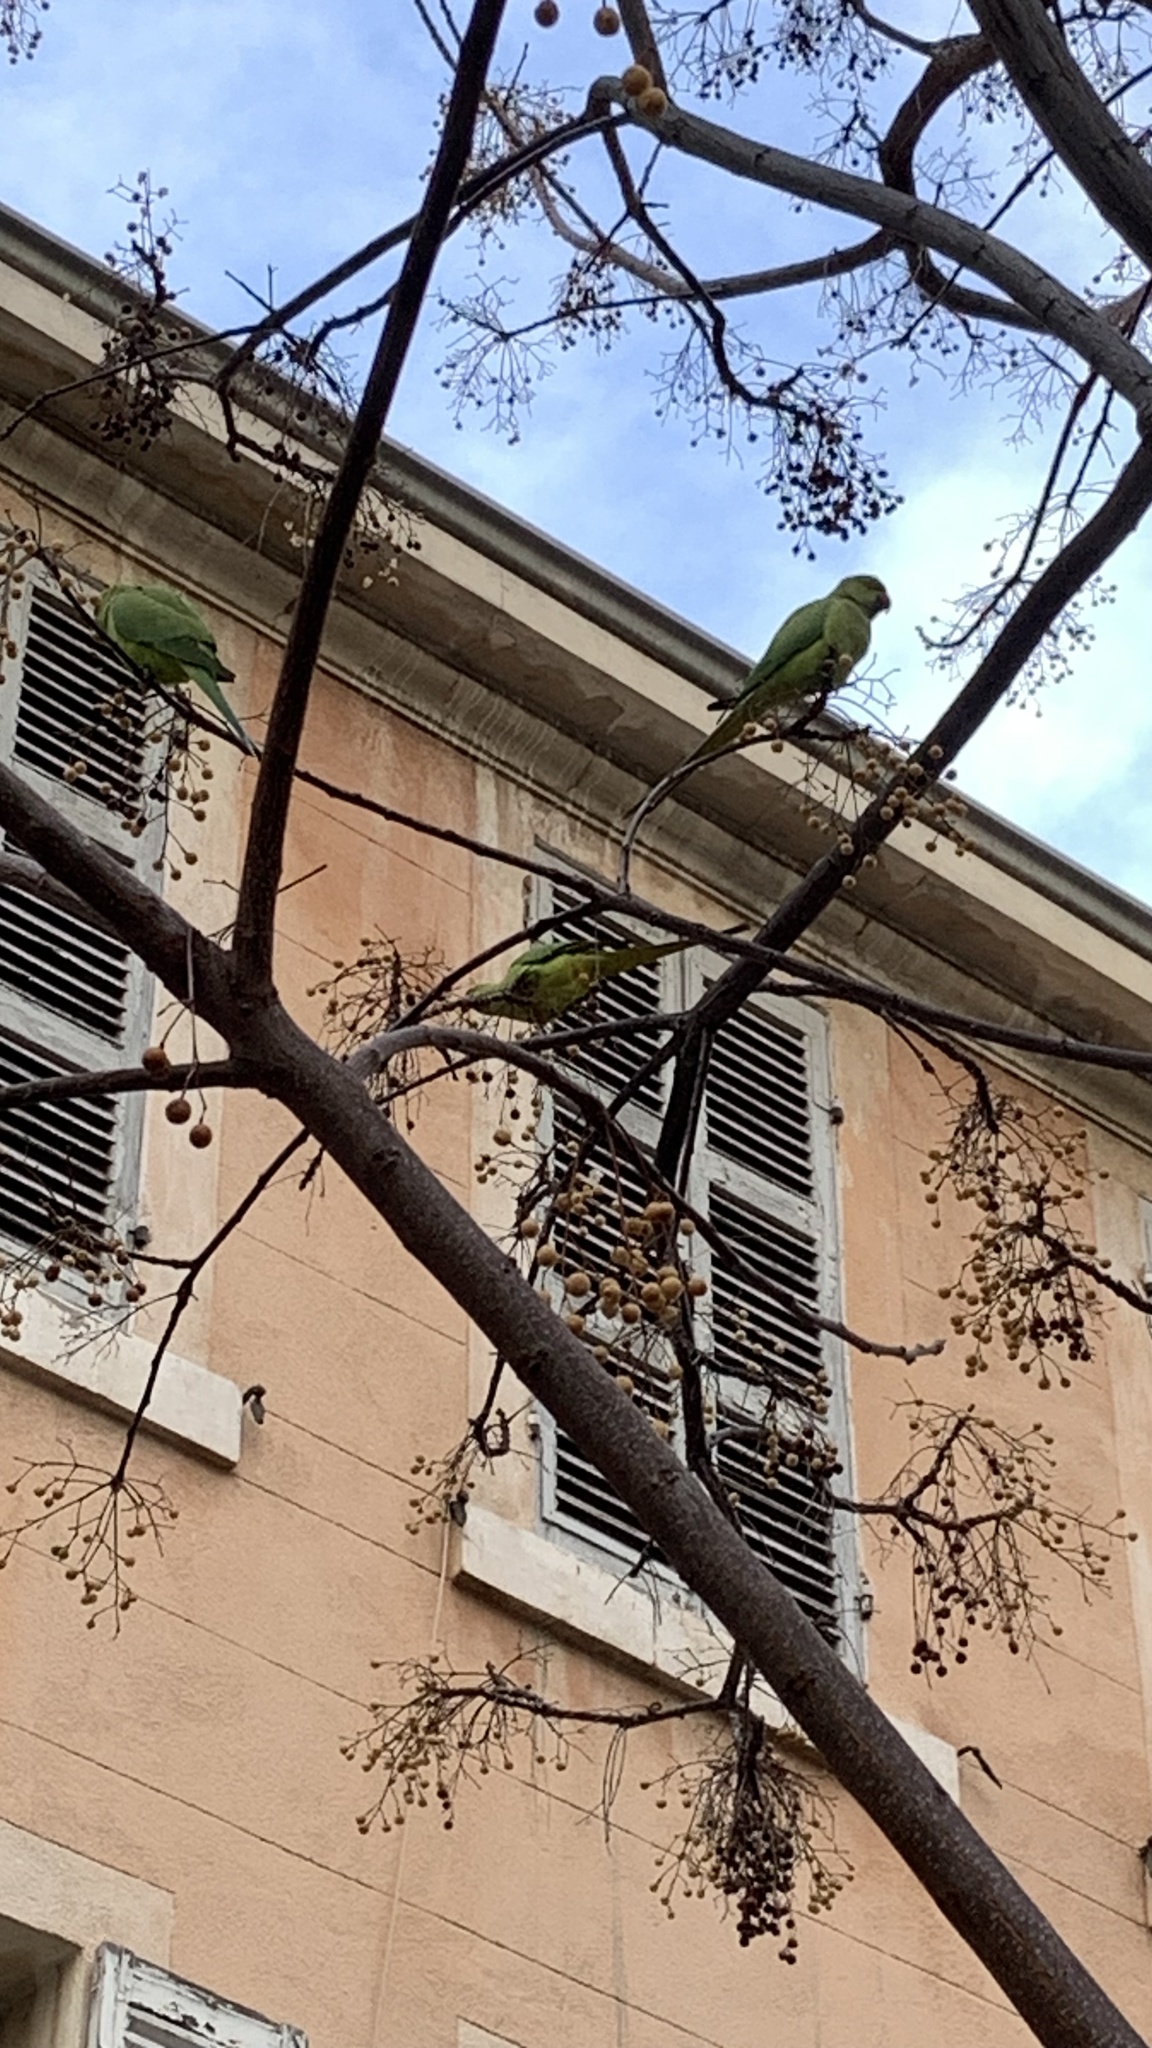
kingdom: Animalia
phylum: Chordata
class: Aves
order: Psittaciformes
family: Psittacidae
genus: Psittacula
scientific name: Psittacula krameri
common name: Rose-ringed parakeet
